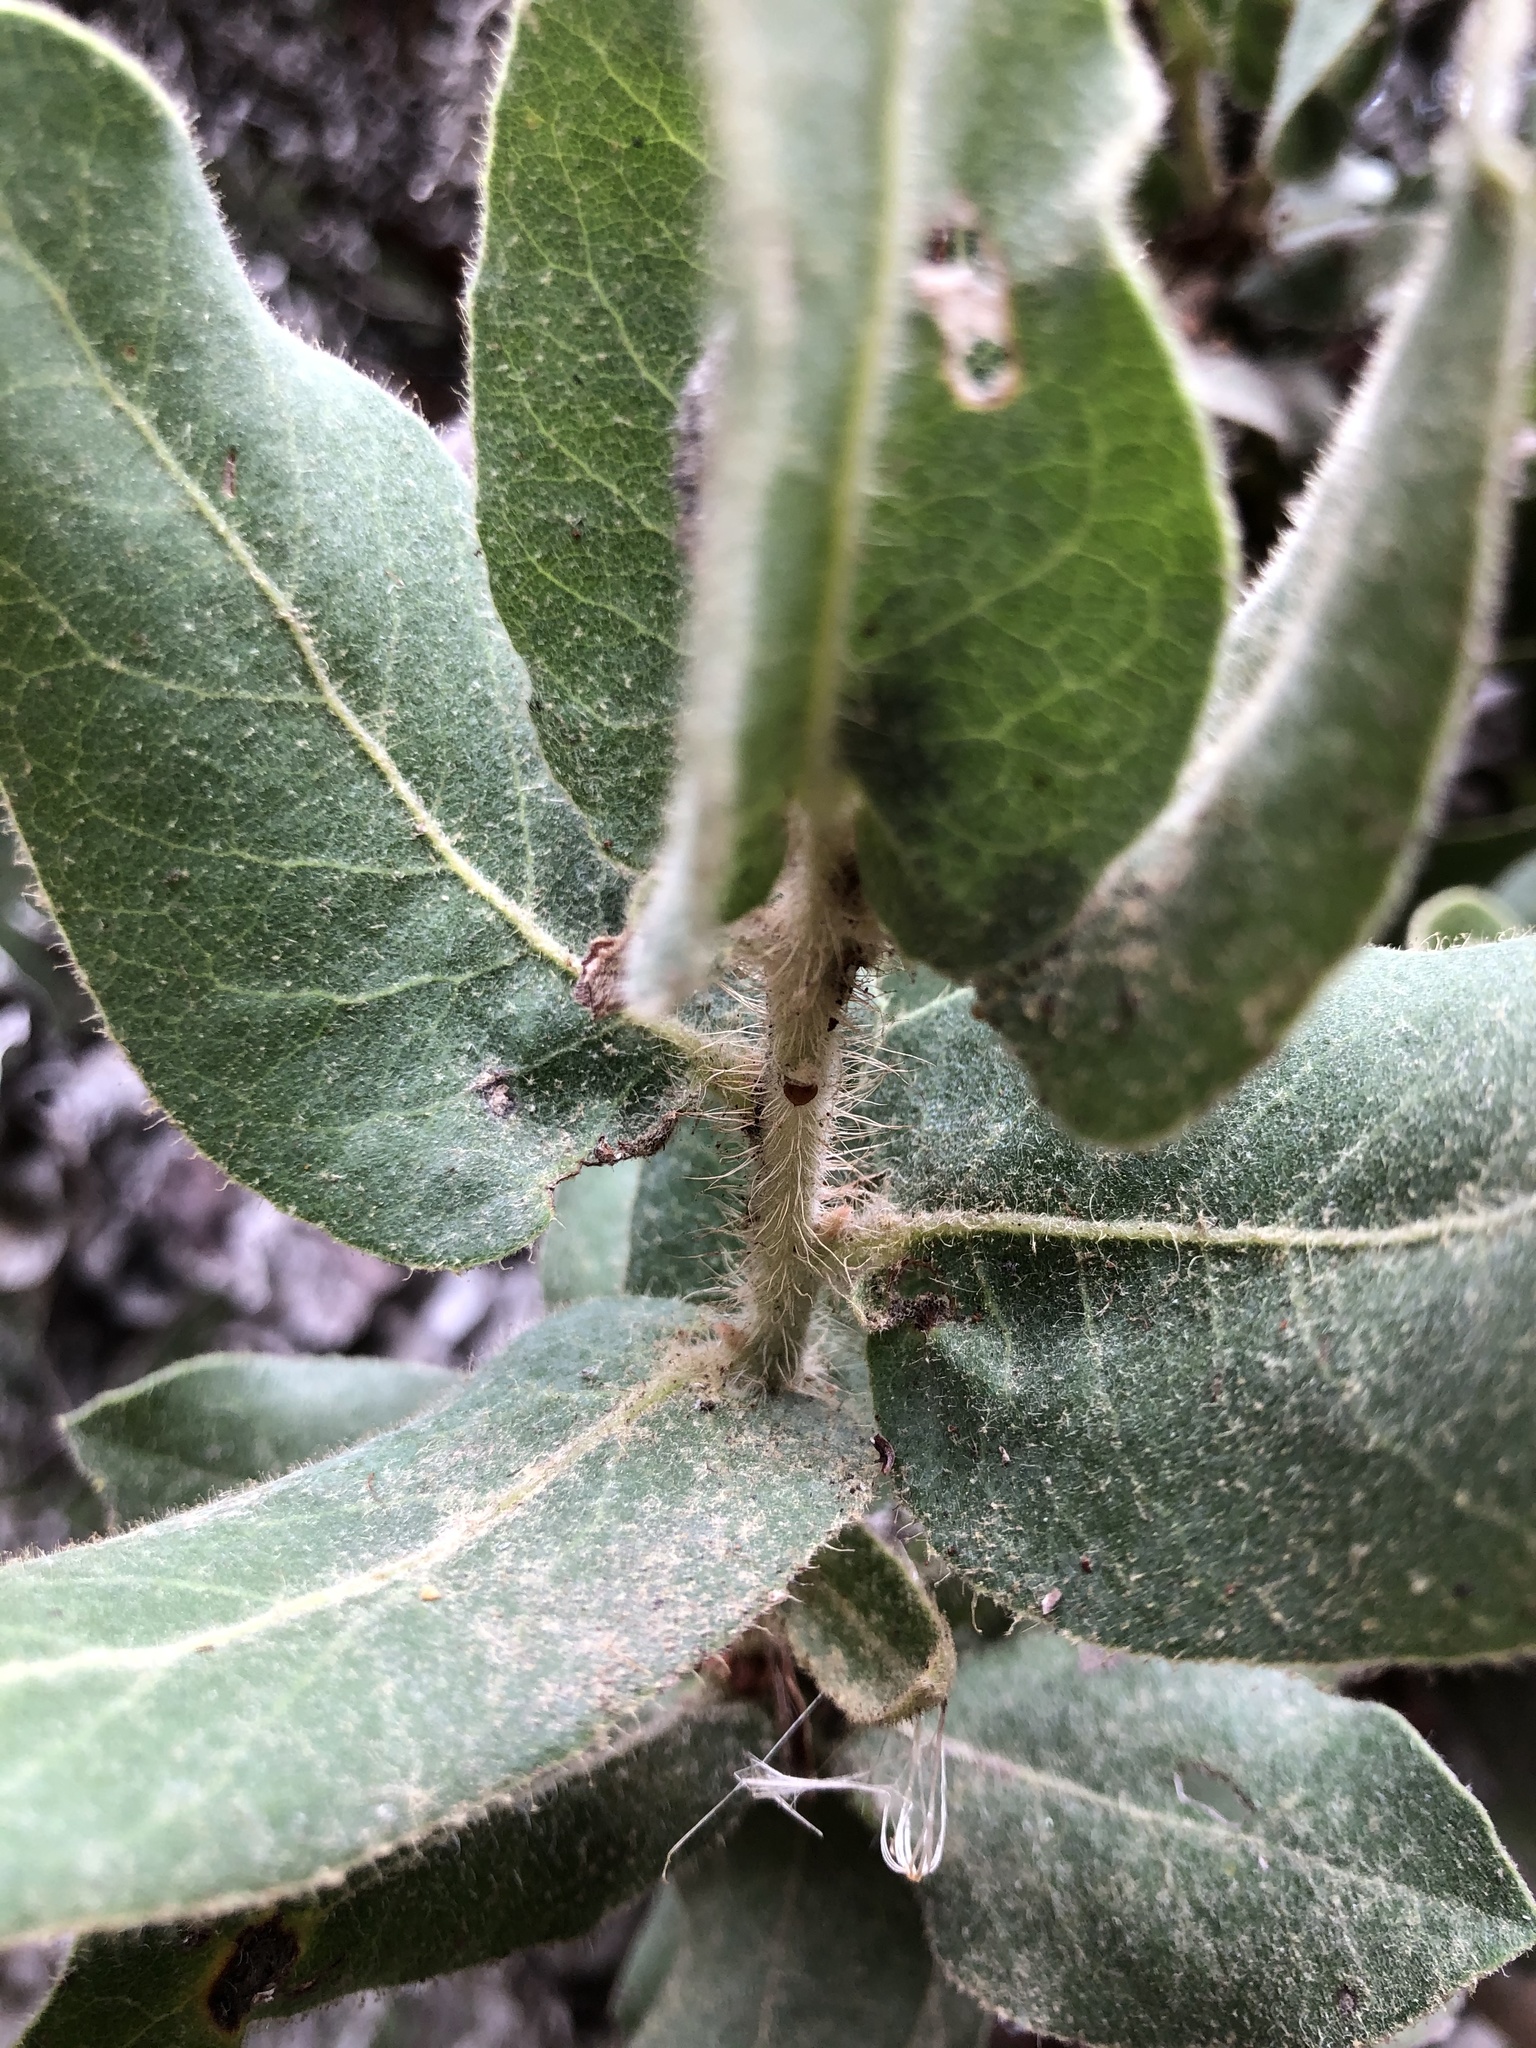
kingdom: Plantae
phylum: Tracheophyta
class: Magnoliopsida
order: Ericales
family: Ericaceae
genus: Arctostaphylos
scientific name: Arctostaphylos regismontana
